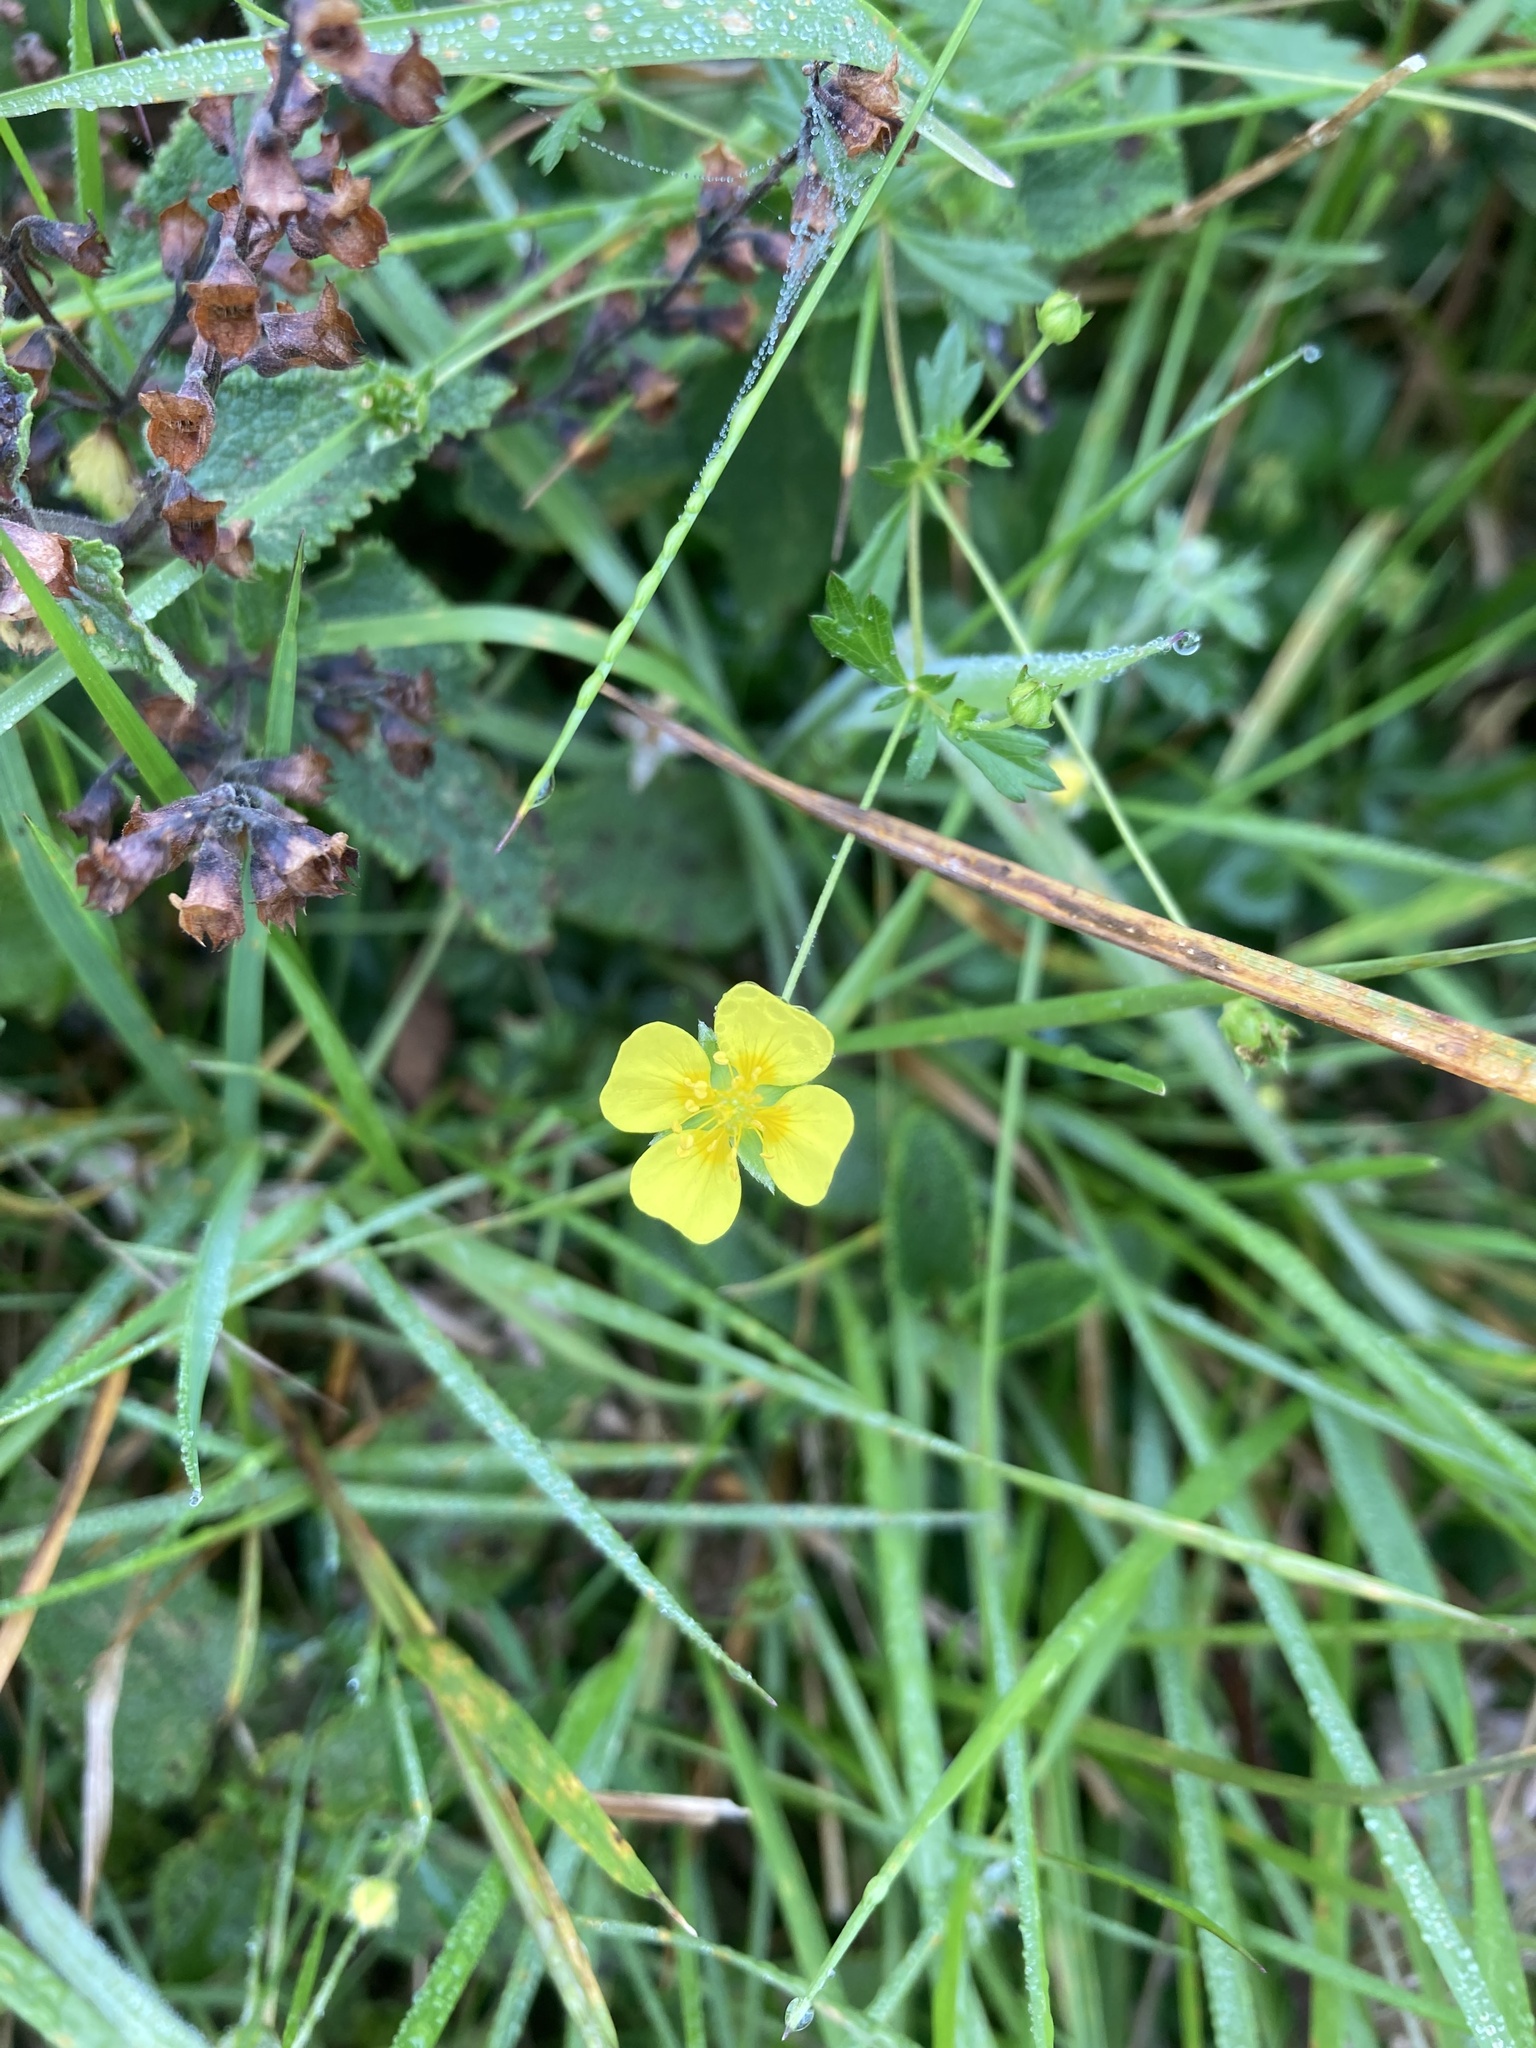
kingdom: Plantae
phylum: Tracheophyta
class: Magnoliopsida
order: Rosales
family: Rosaceae
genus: Potentilla
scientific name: Potentilla erecta
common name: Tormentil
